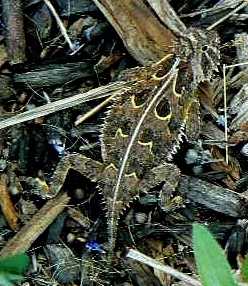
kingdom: Animalia
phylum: Chordata
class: Squamata
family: Phrynosomatidae
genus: Phrynosoma
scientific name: Phrynosoma cornutum
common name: Texas horned lizard
